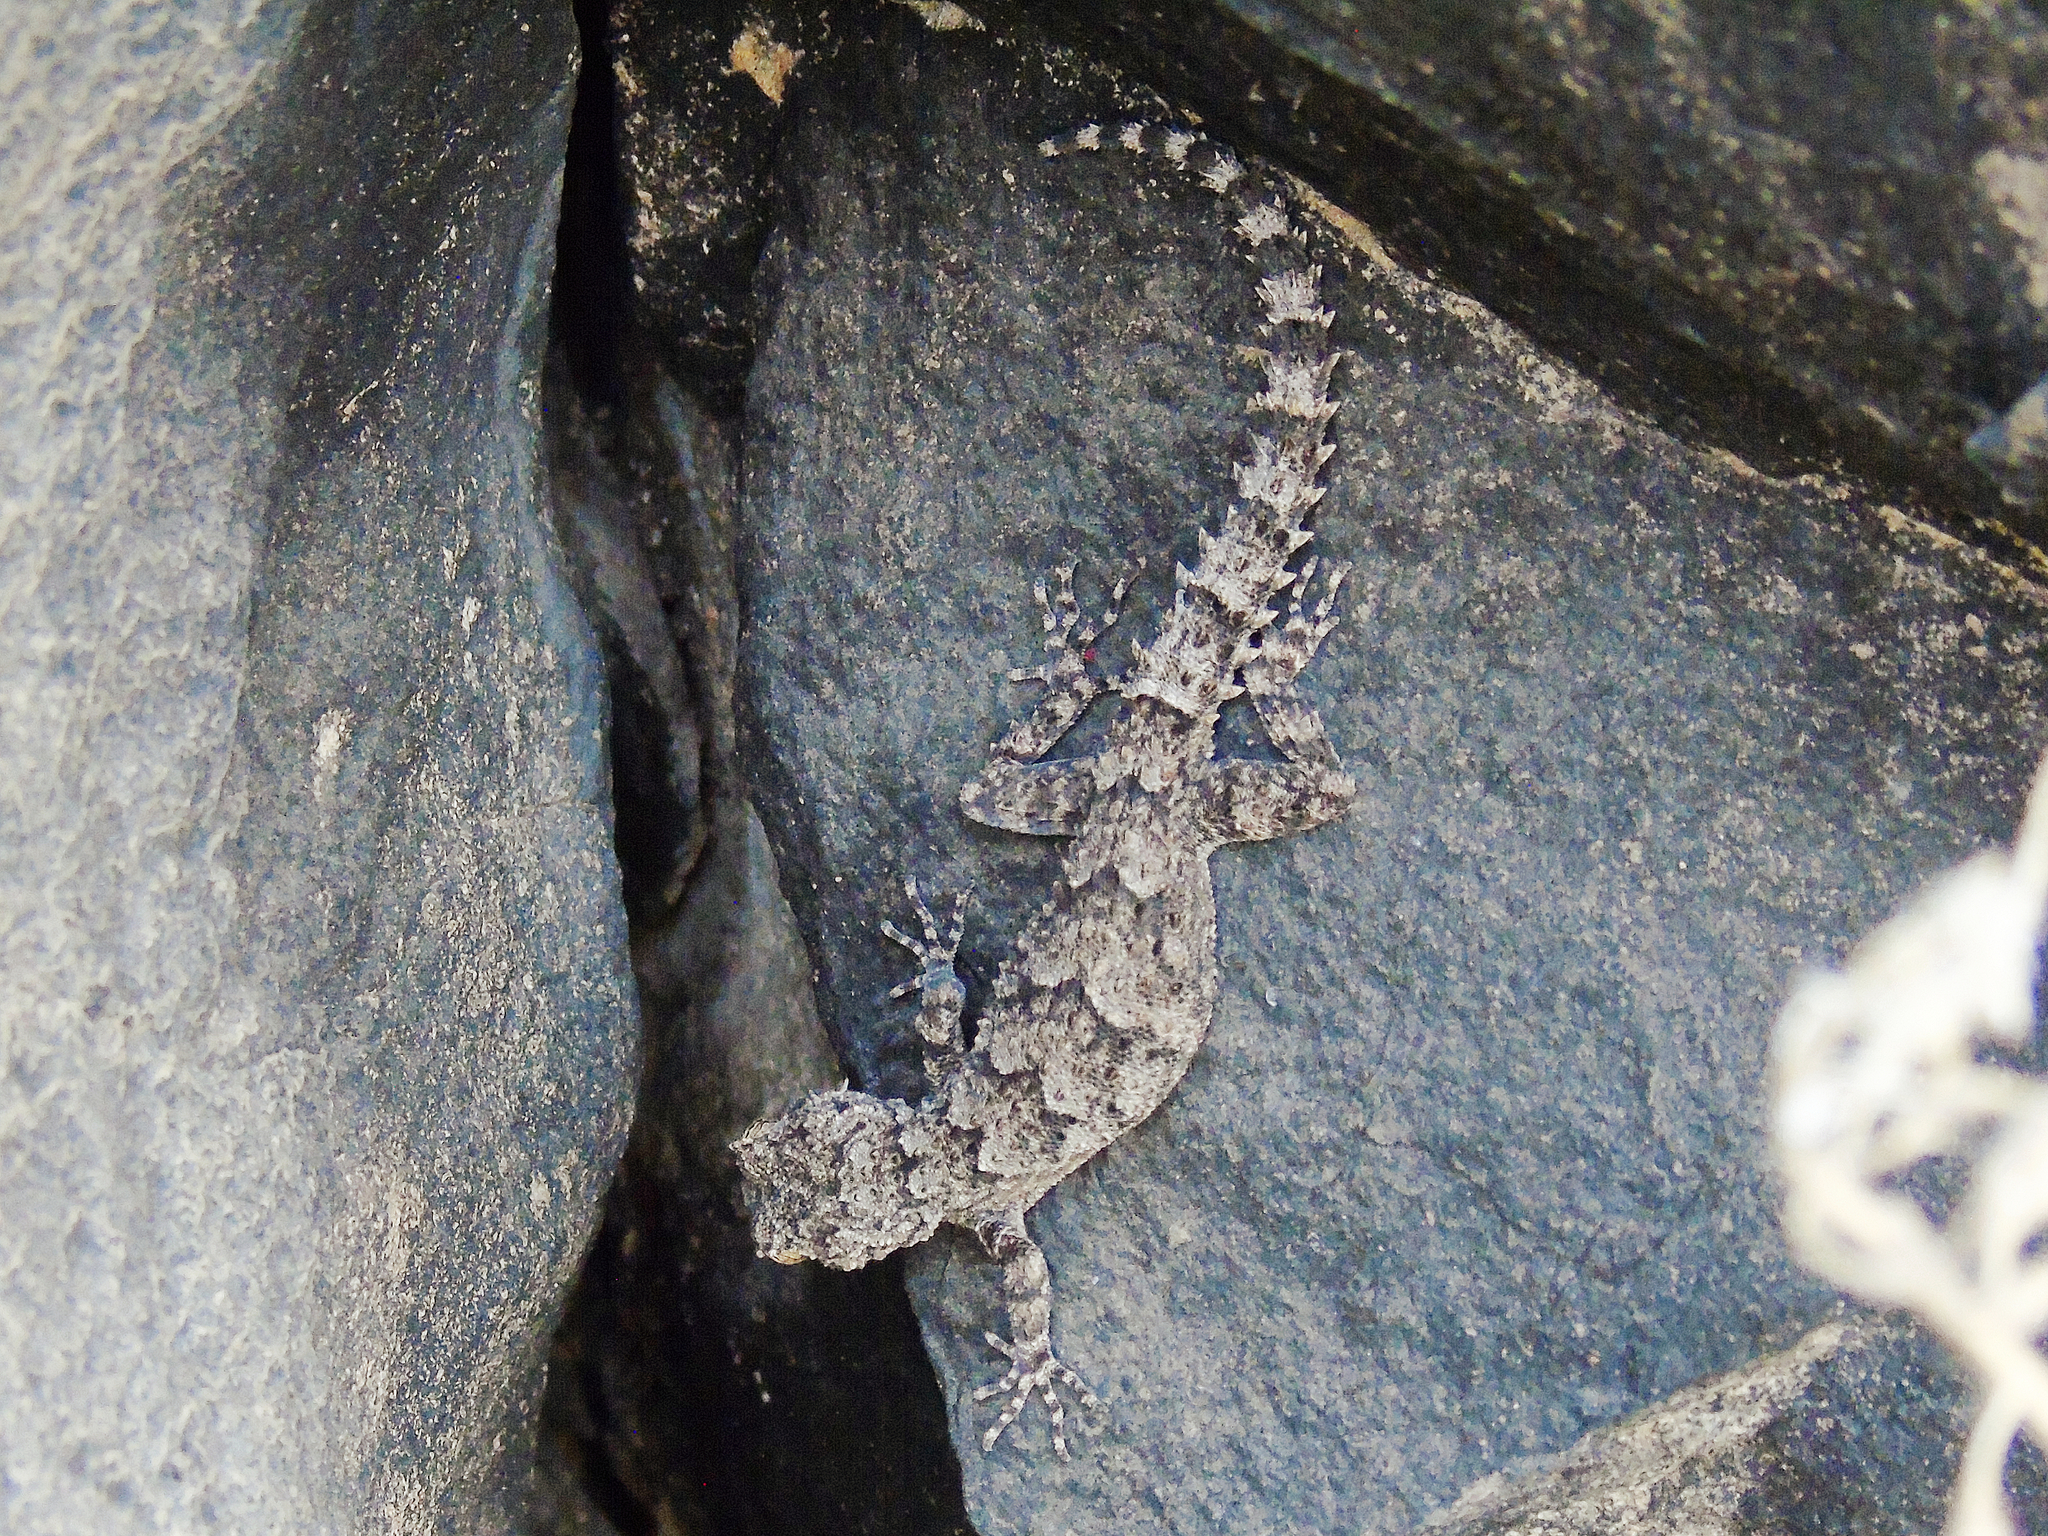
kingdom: Animalia
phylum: Chordata
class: Squamata
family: Gekkonidae
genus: Mediodactylus
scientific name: Mediodactylus heterocercus
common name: Asia minor thin-toed gecko
